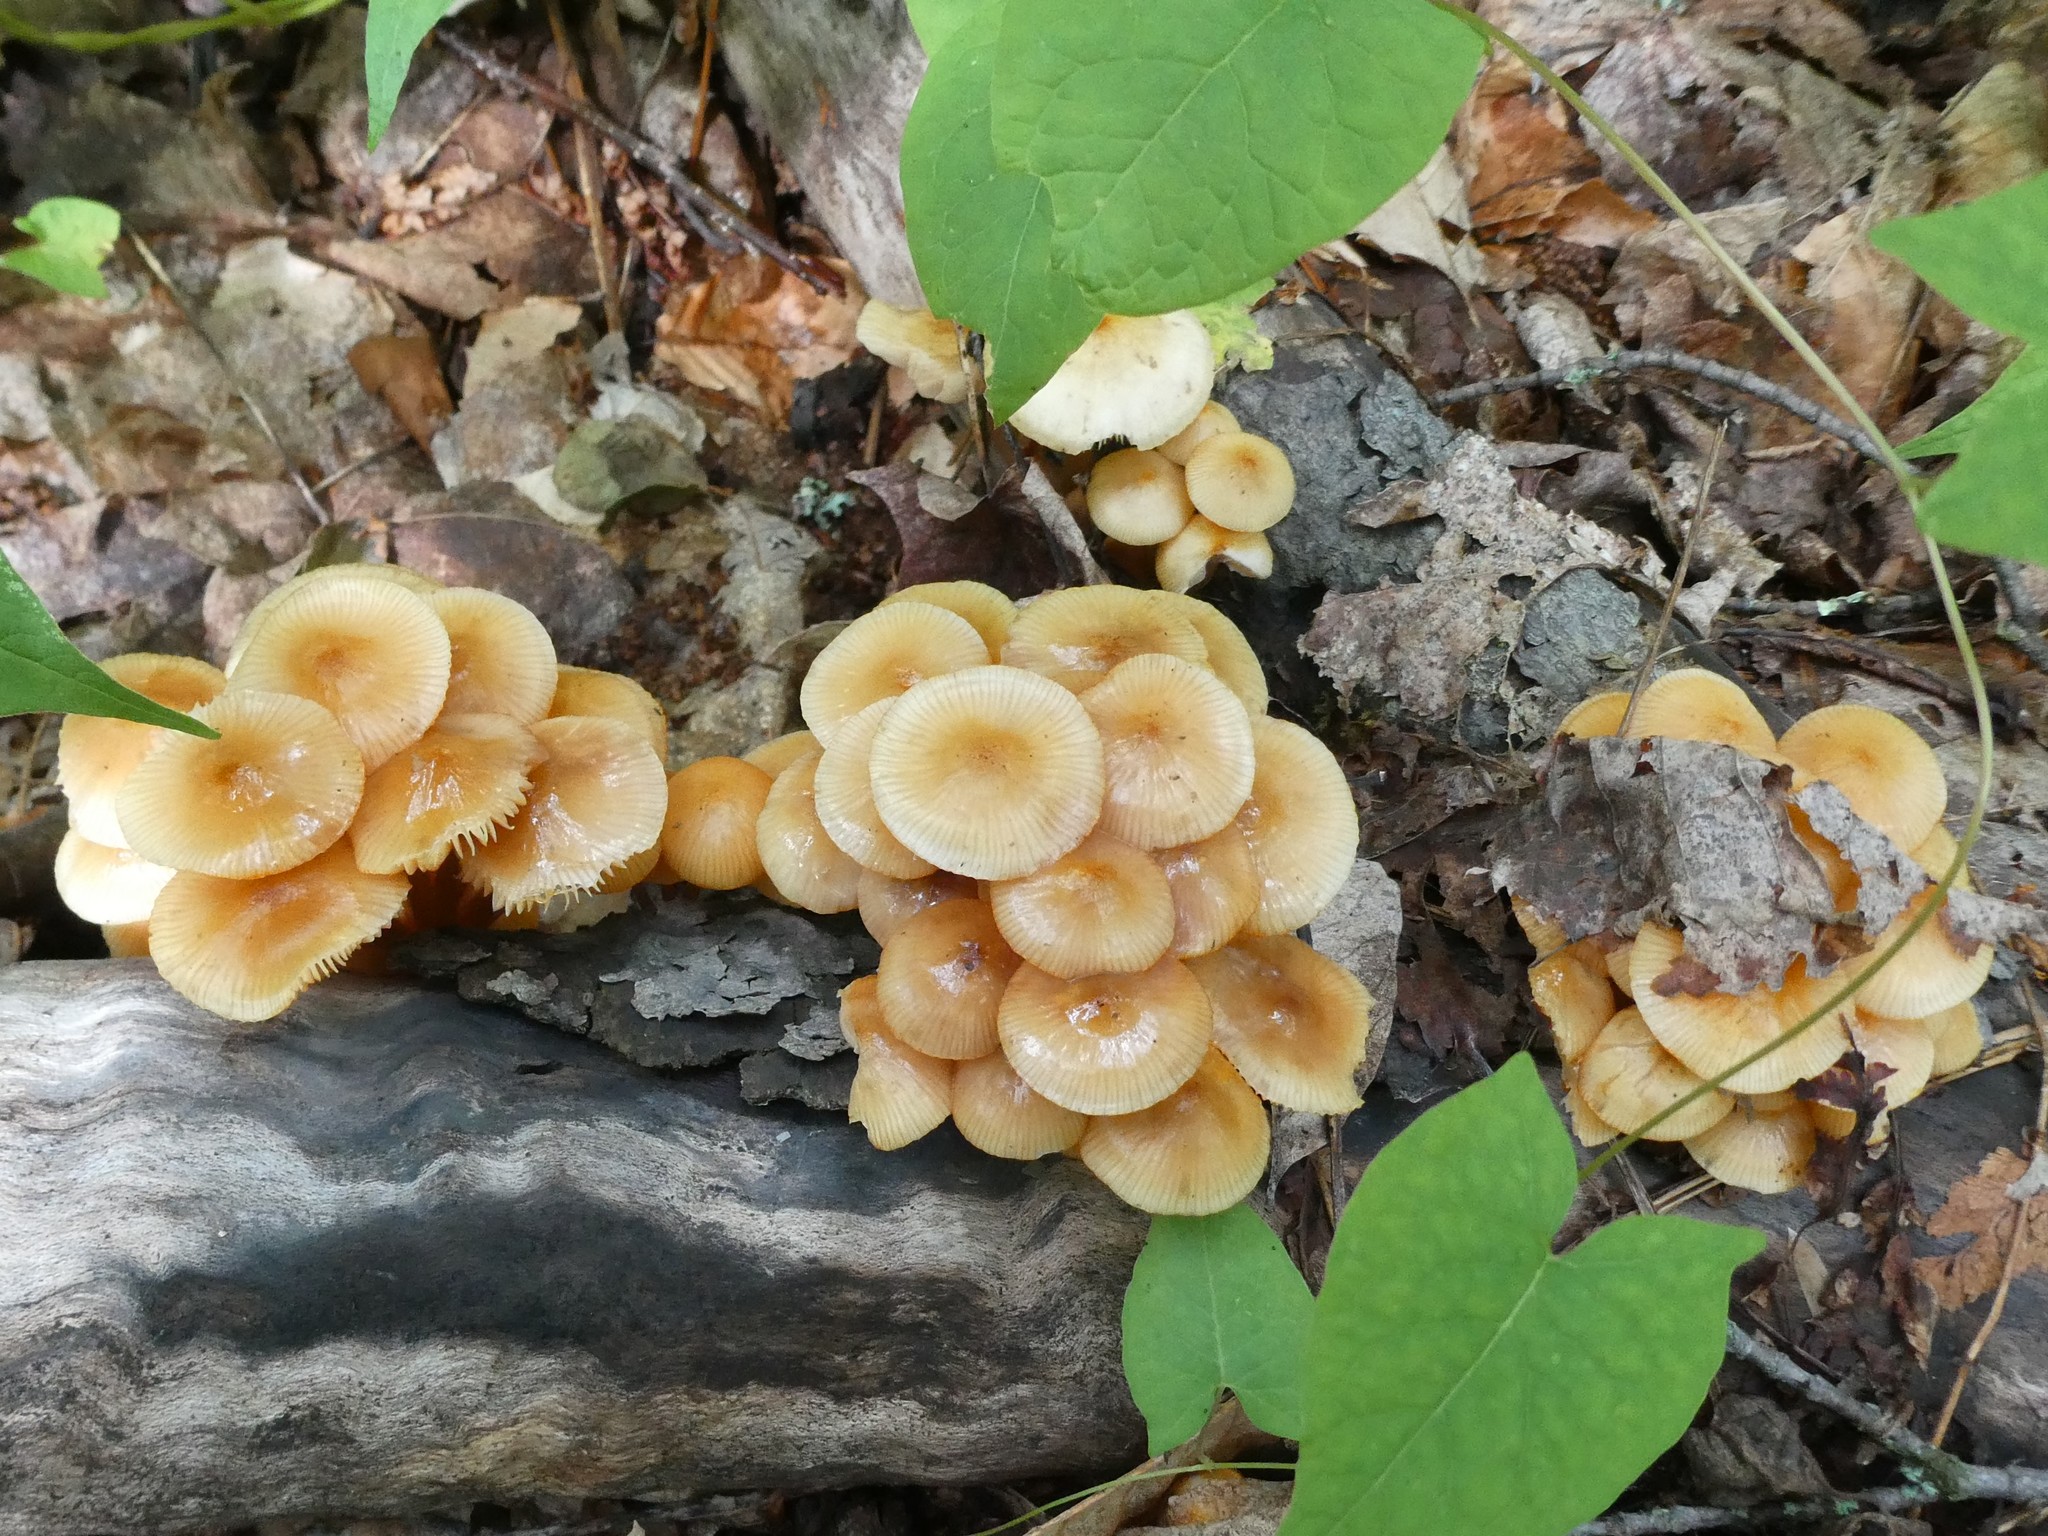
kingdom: Fungi
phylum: Basidiomycota
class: Agaricomycetes
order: Agaricales
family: Mycenaceae
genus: Mycena
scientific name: Mycena leaiana
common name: Orange mycena
